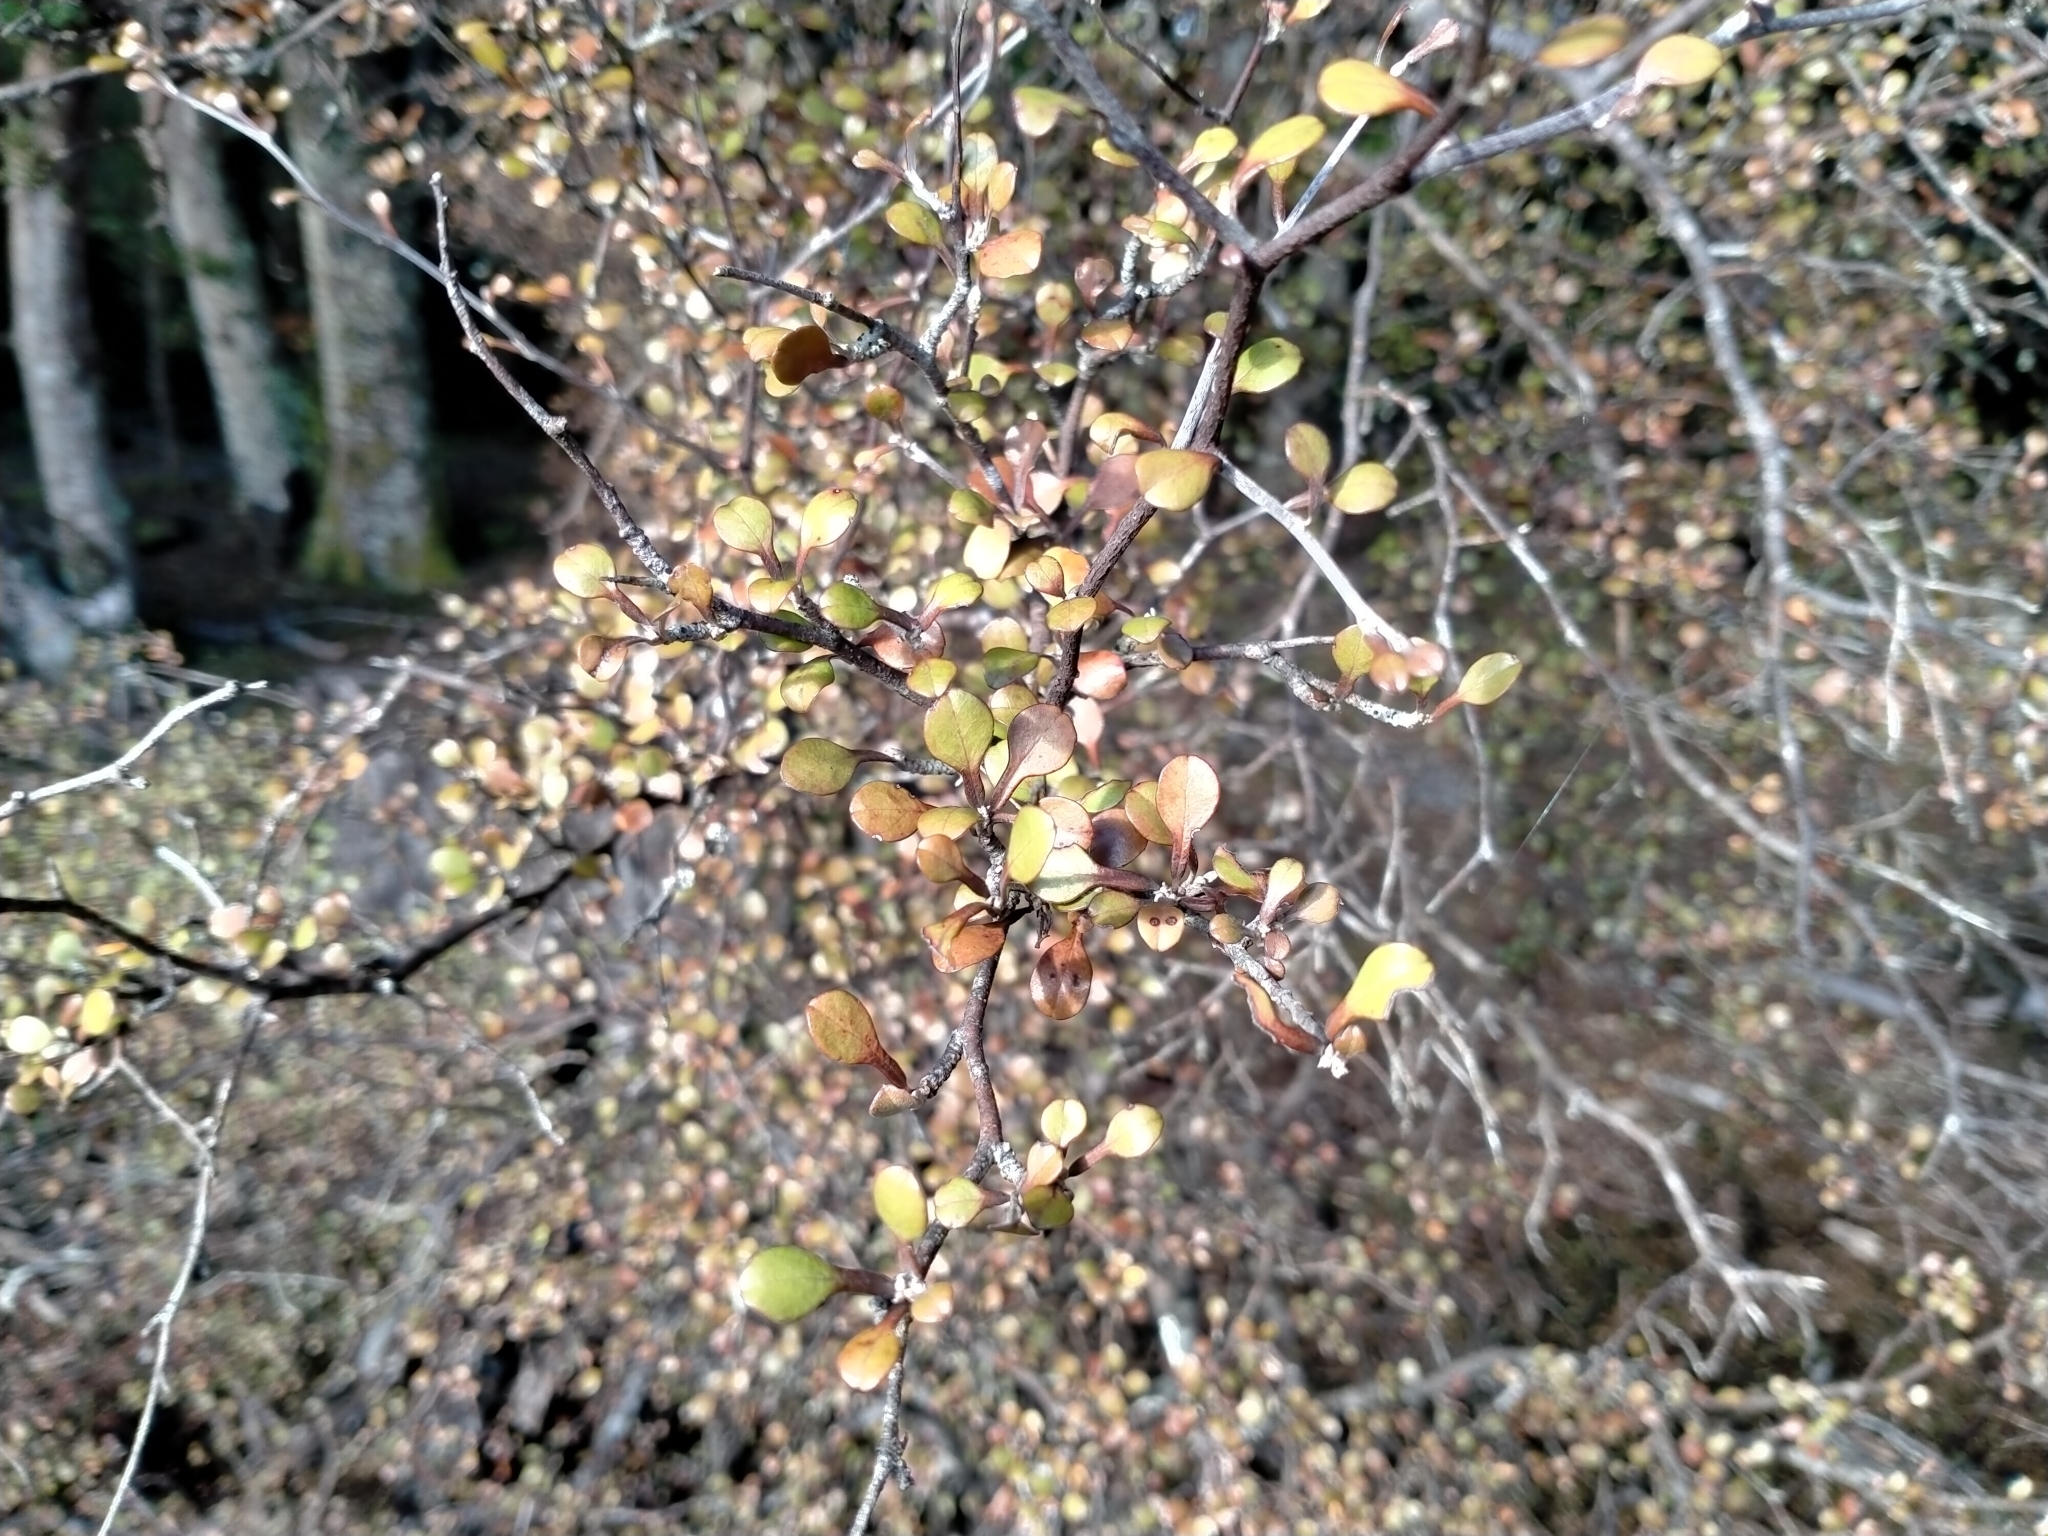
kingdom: Plantae
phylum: Tracheophyta
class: Magnoliopsida
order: Asterales
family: Argophyllaceae
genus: Corokia
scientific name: Corokia cotoneaster
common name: Wire nettingbush
